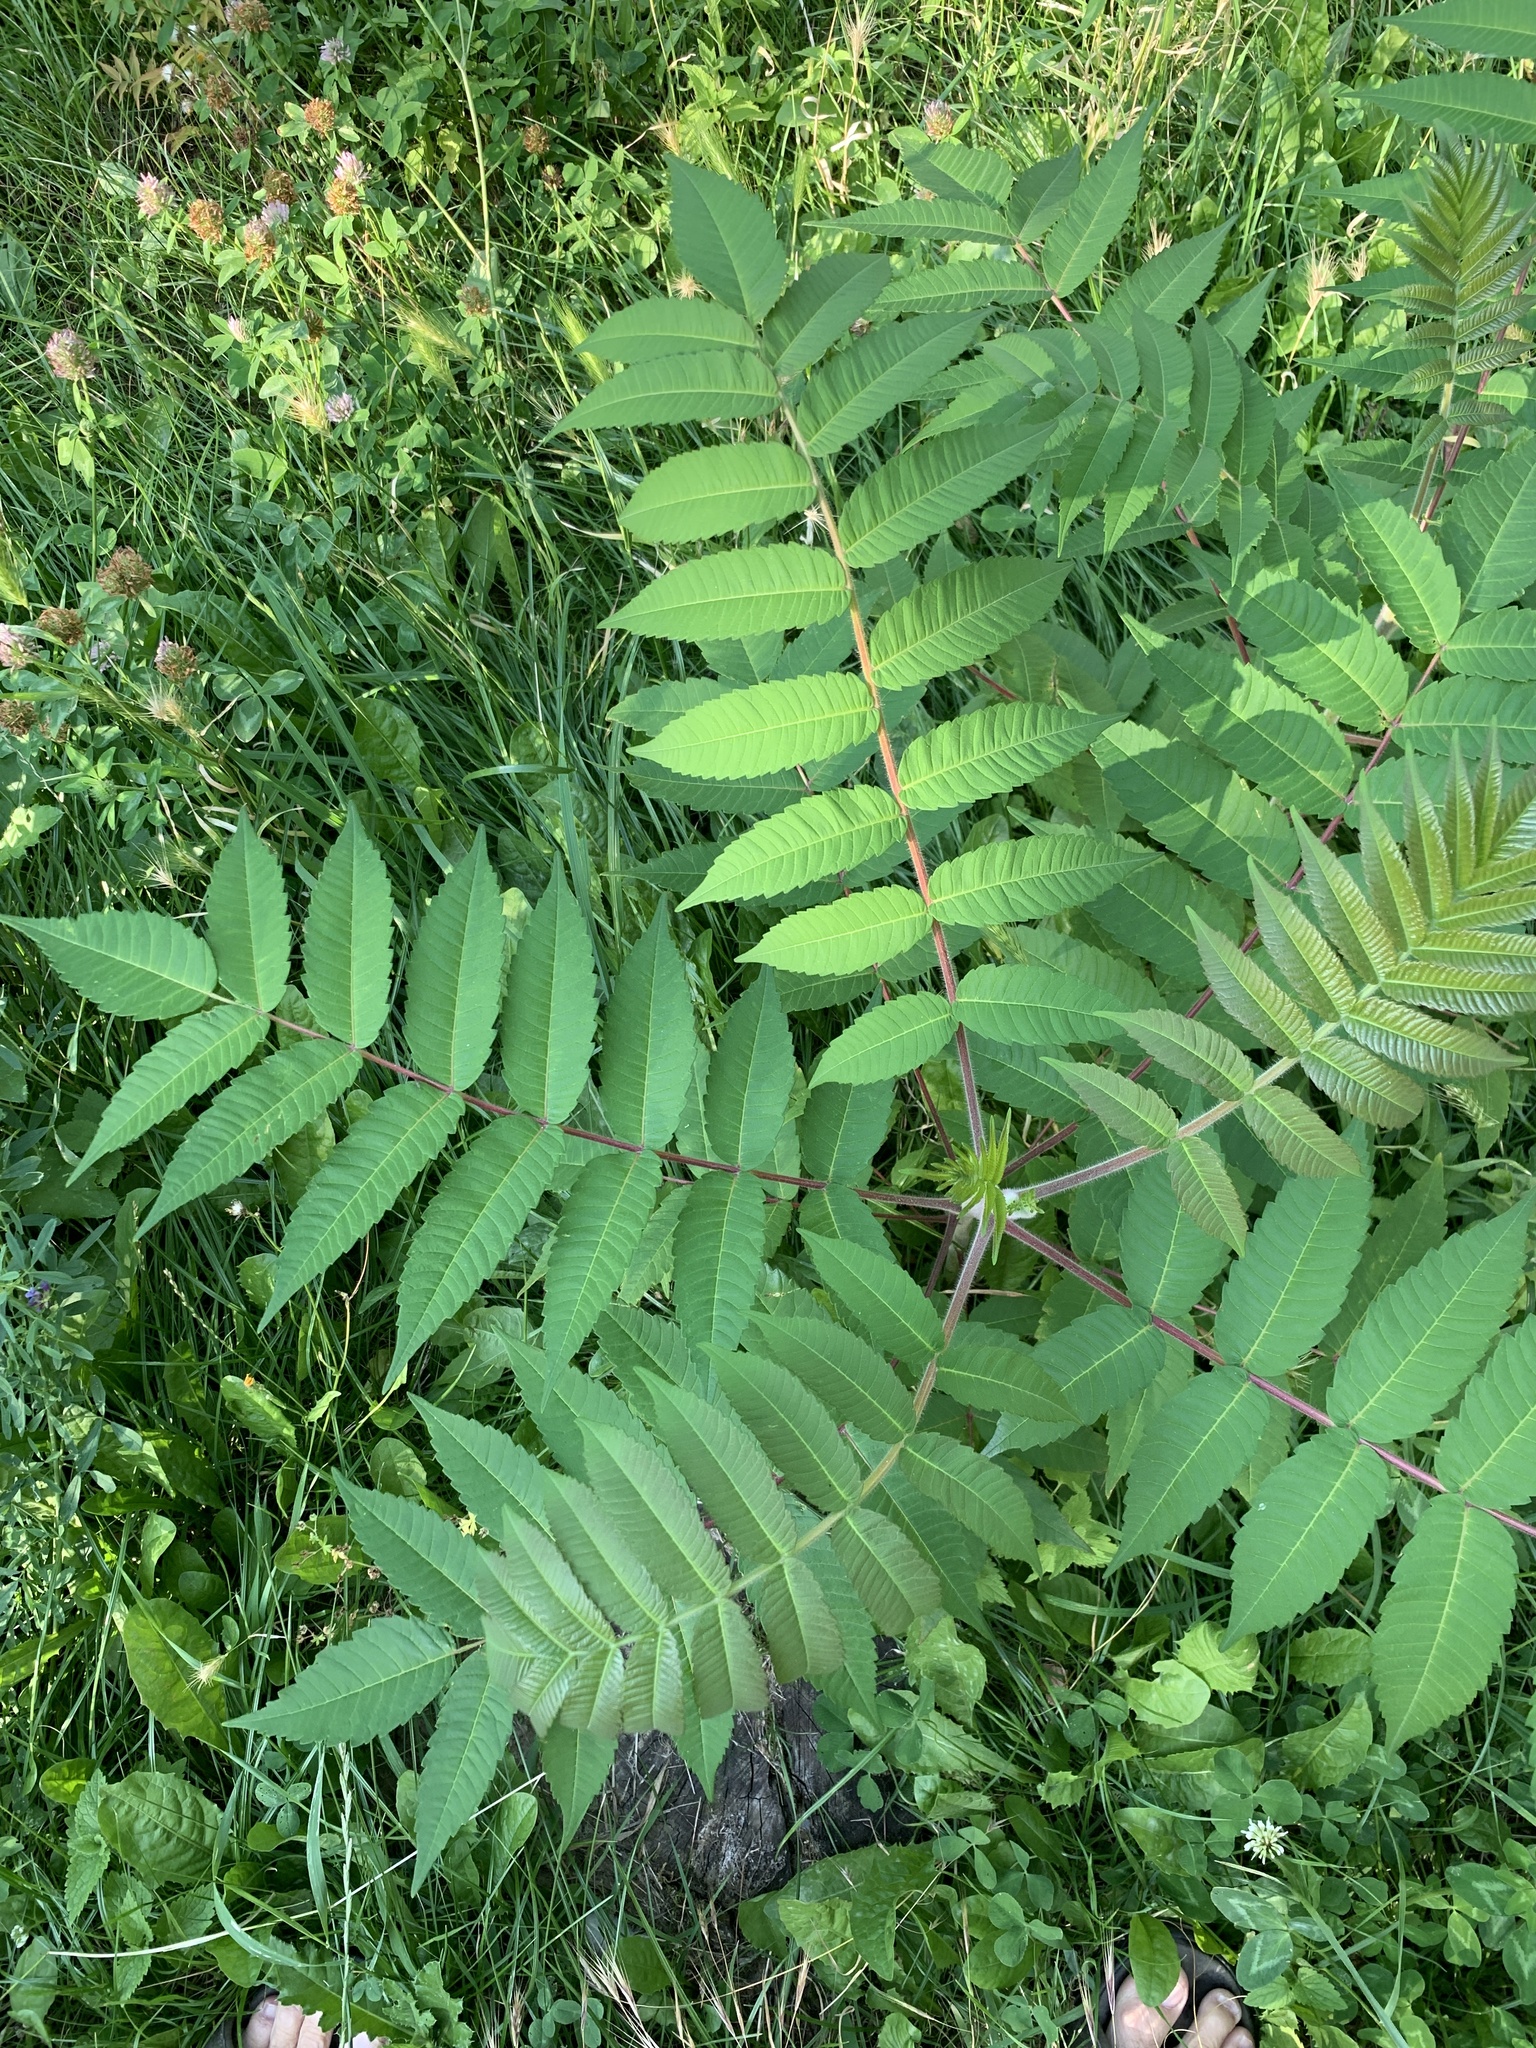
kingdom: Plantae
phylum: Tracheophyta
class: Magnoliopsida
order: Sapindales
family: Anacardiaceae
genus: Rhus
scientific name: Rhus typhina
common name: Staghorn sumac
